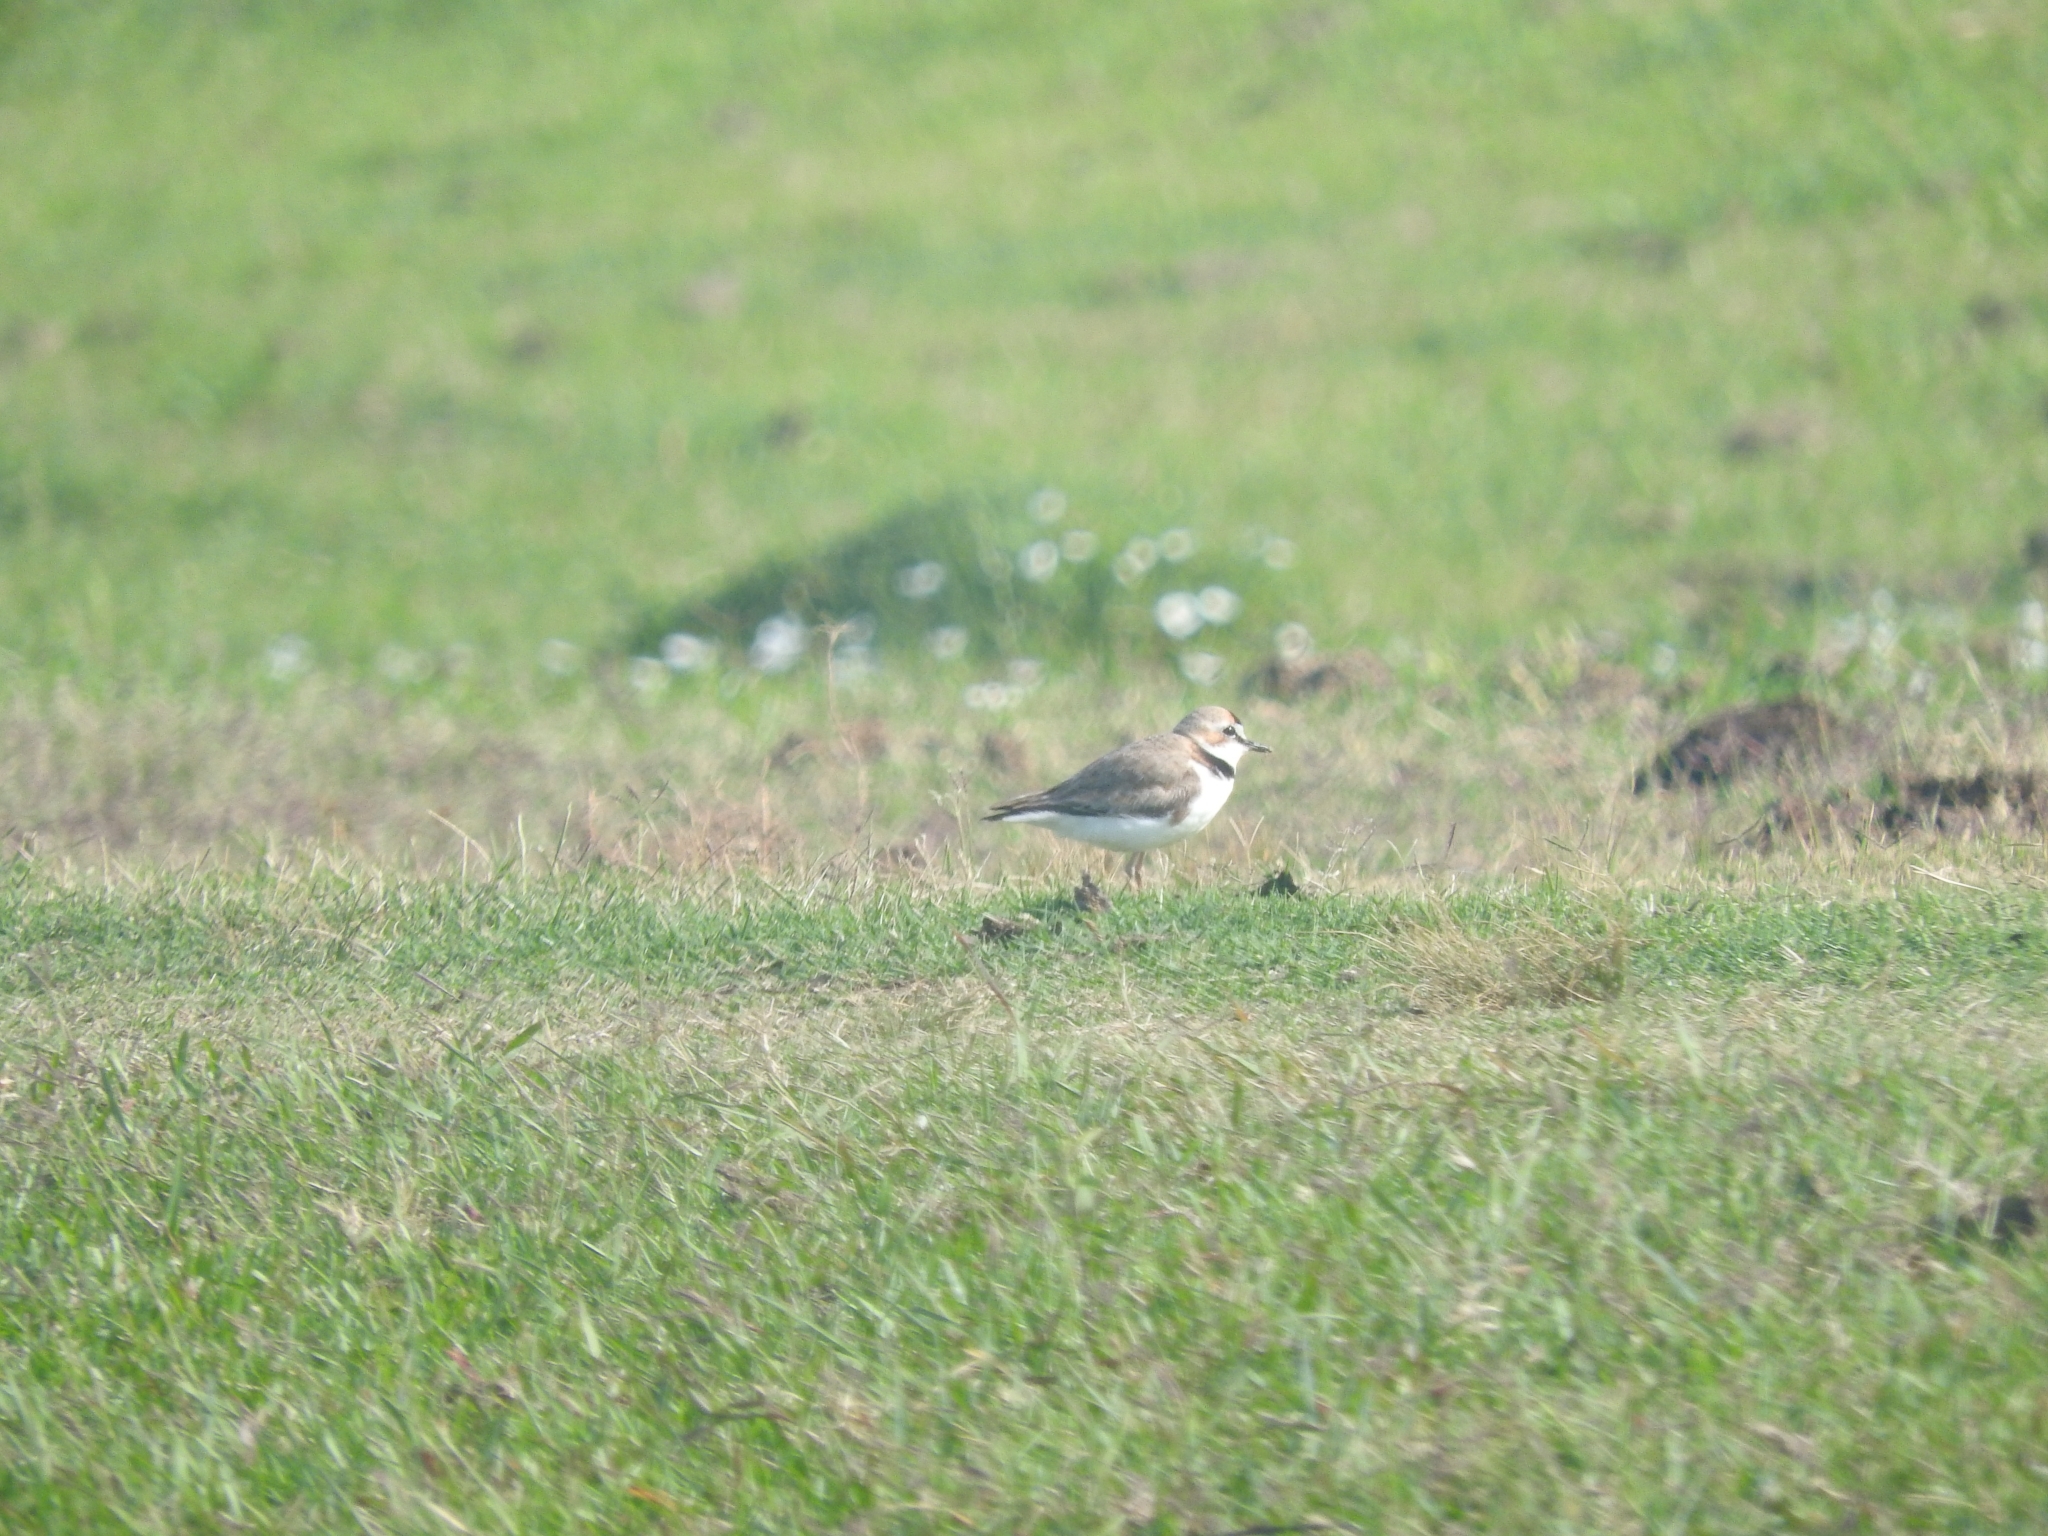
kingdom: Animalia
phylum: Chordata
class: Aves
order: Charadriiformes
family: Charadriidae
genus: Anarhynchus
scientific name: Anarhynchus
